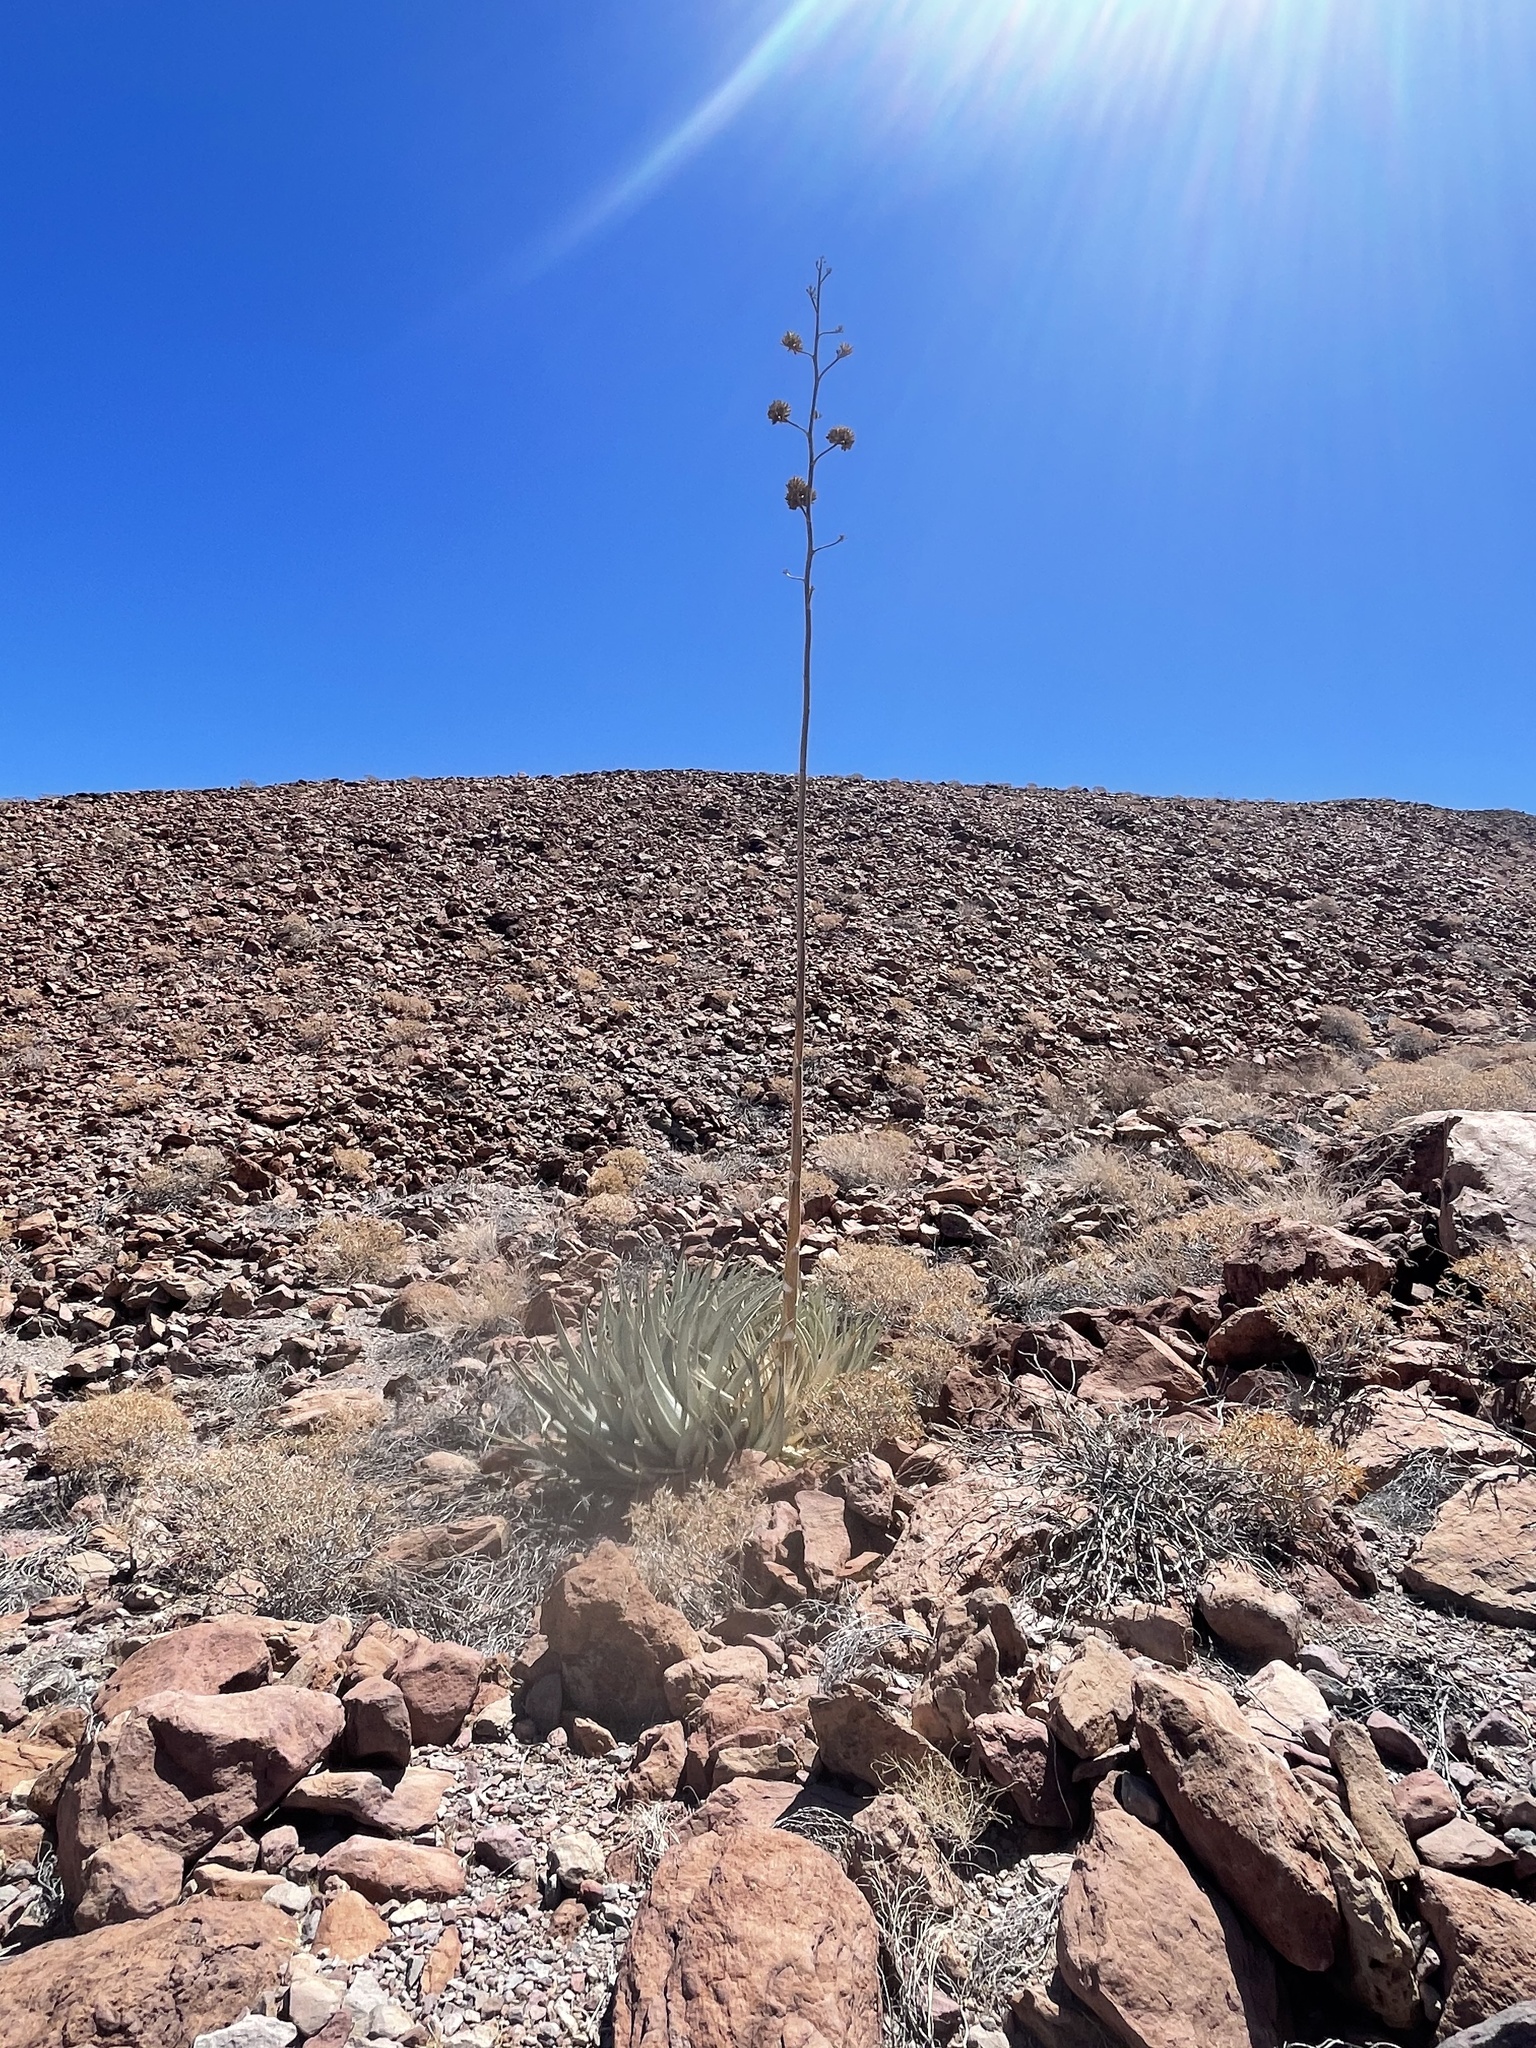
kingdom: Plantae
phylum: Tracheophyta
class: Liliopsida
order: Asparagales
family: Asparagaceae
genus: Agave
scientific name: Agave cerulata
